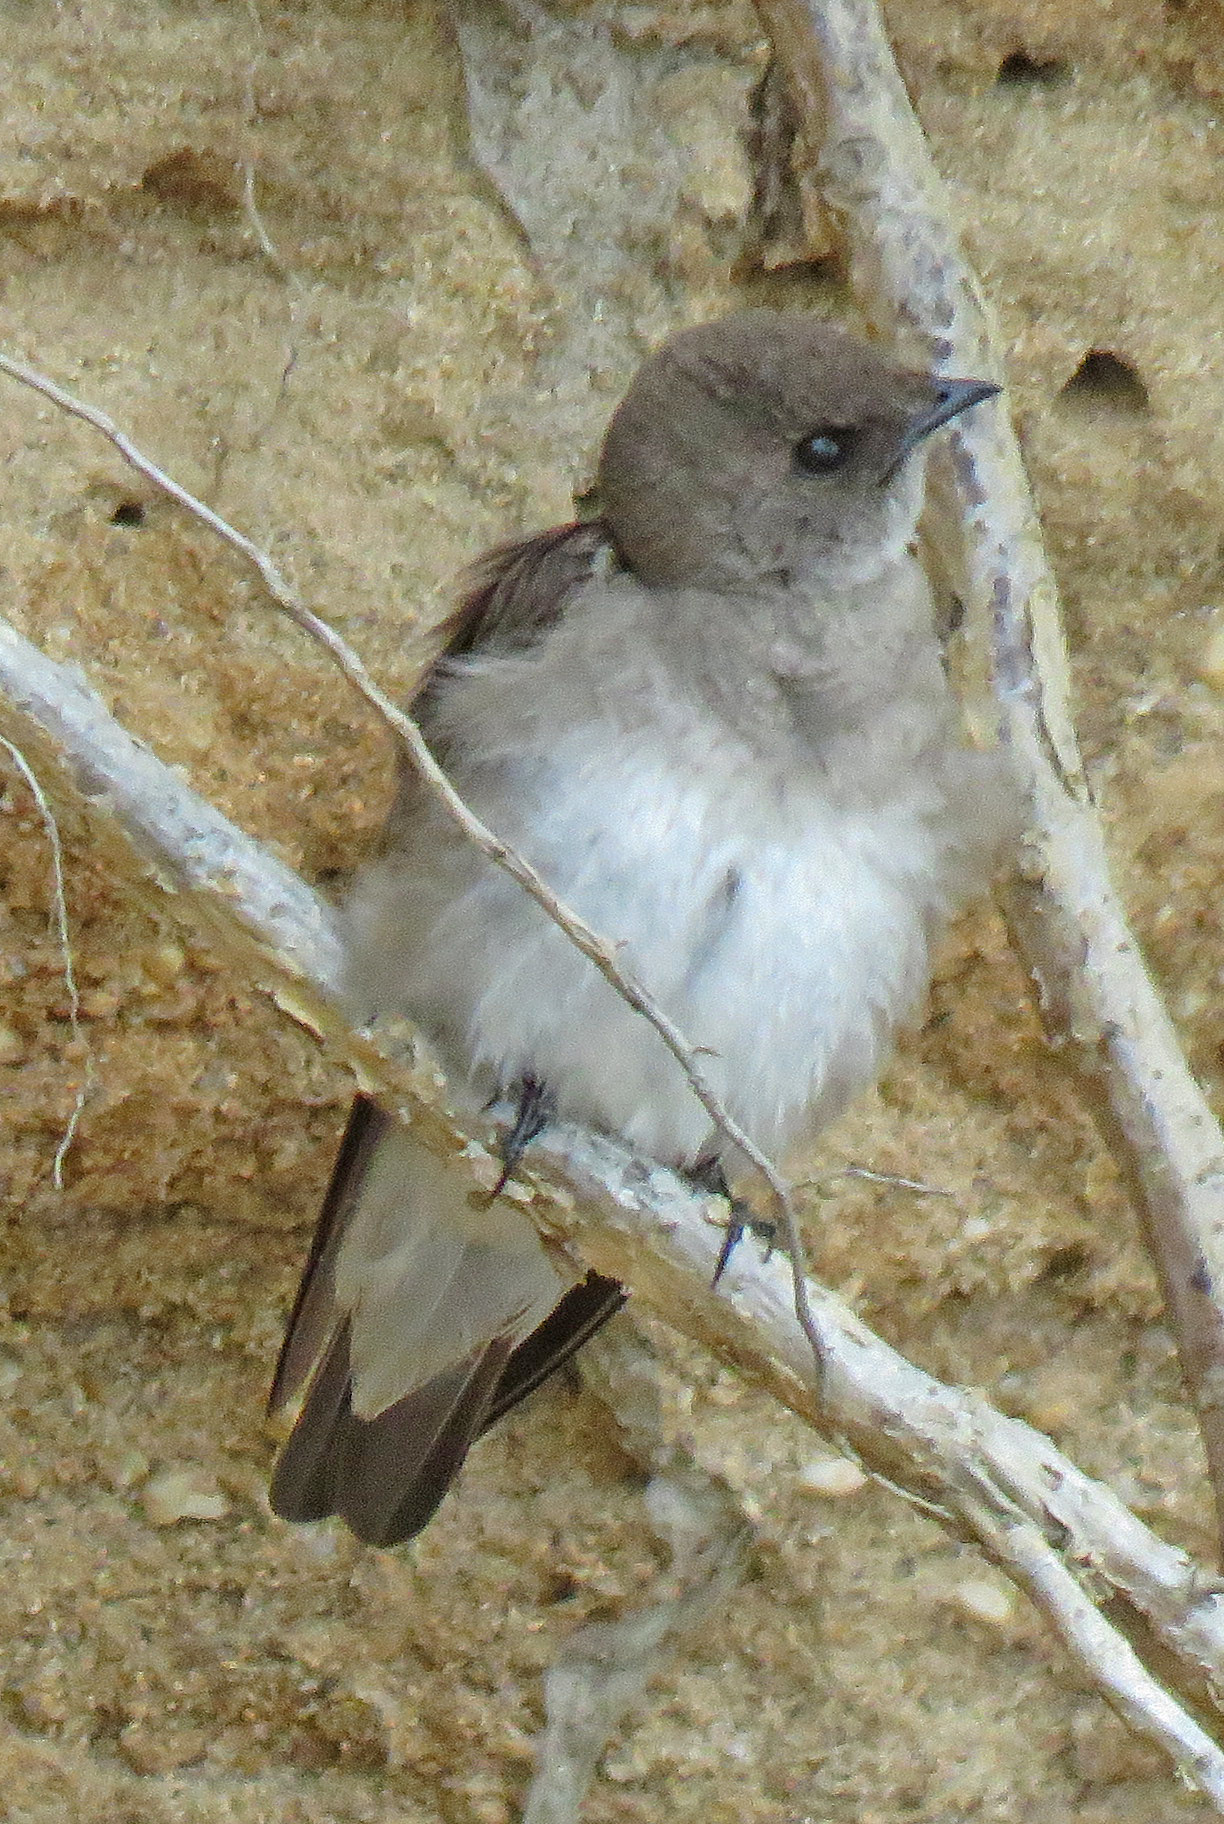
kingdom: Animalia
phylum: Chordata
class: Aves
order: Passeriformes
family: Hirundinidae
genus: Stelgidopteryx
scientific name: Stelgidopteryx serripennis
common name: Northern rough-winged swallow
